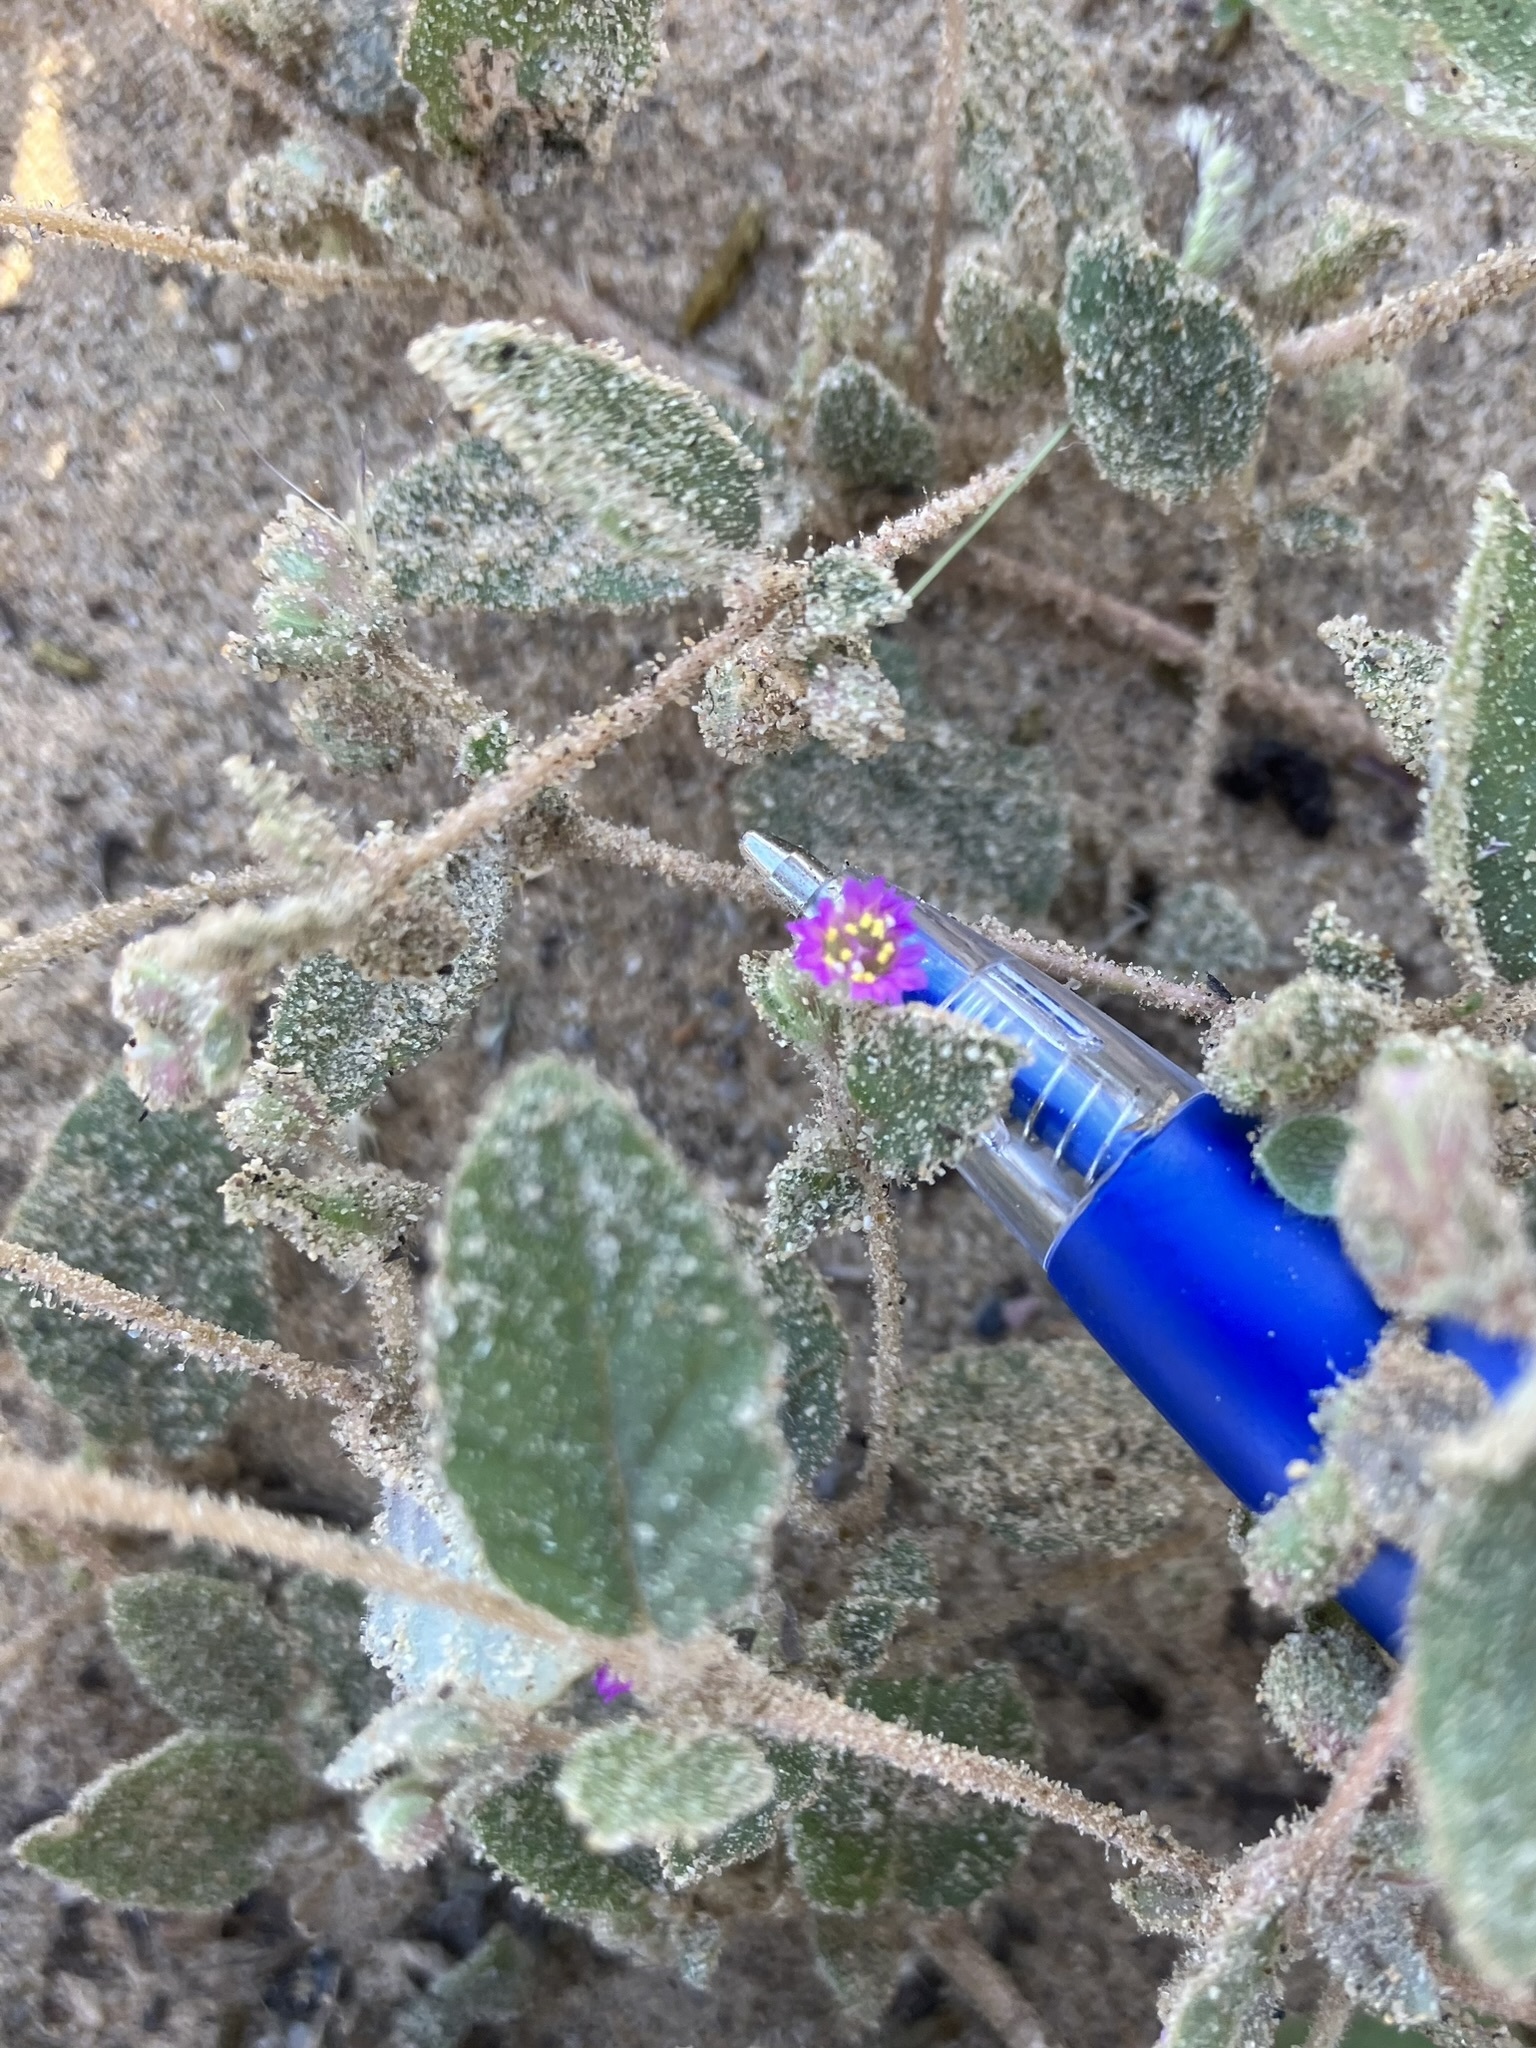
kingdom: Plantae
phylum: Tracheophyta
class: Magnoliopsida
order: Caryophyllales
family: Nyctaginaceae
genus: Allionia
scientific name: Allionia incarnata
